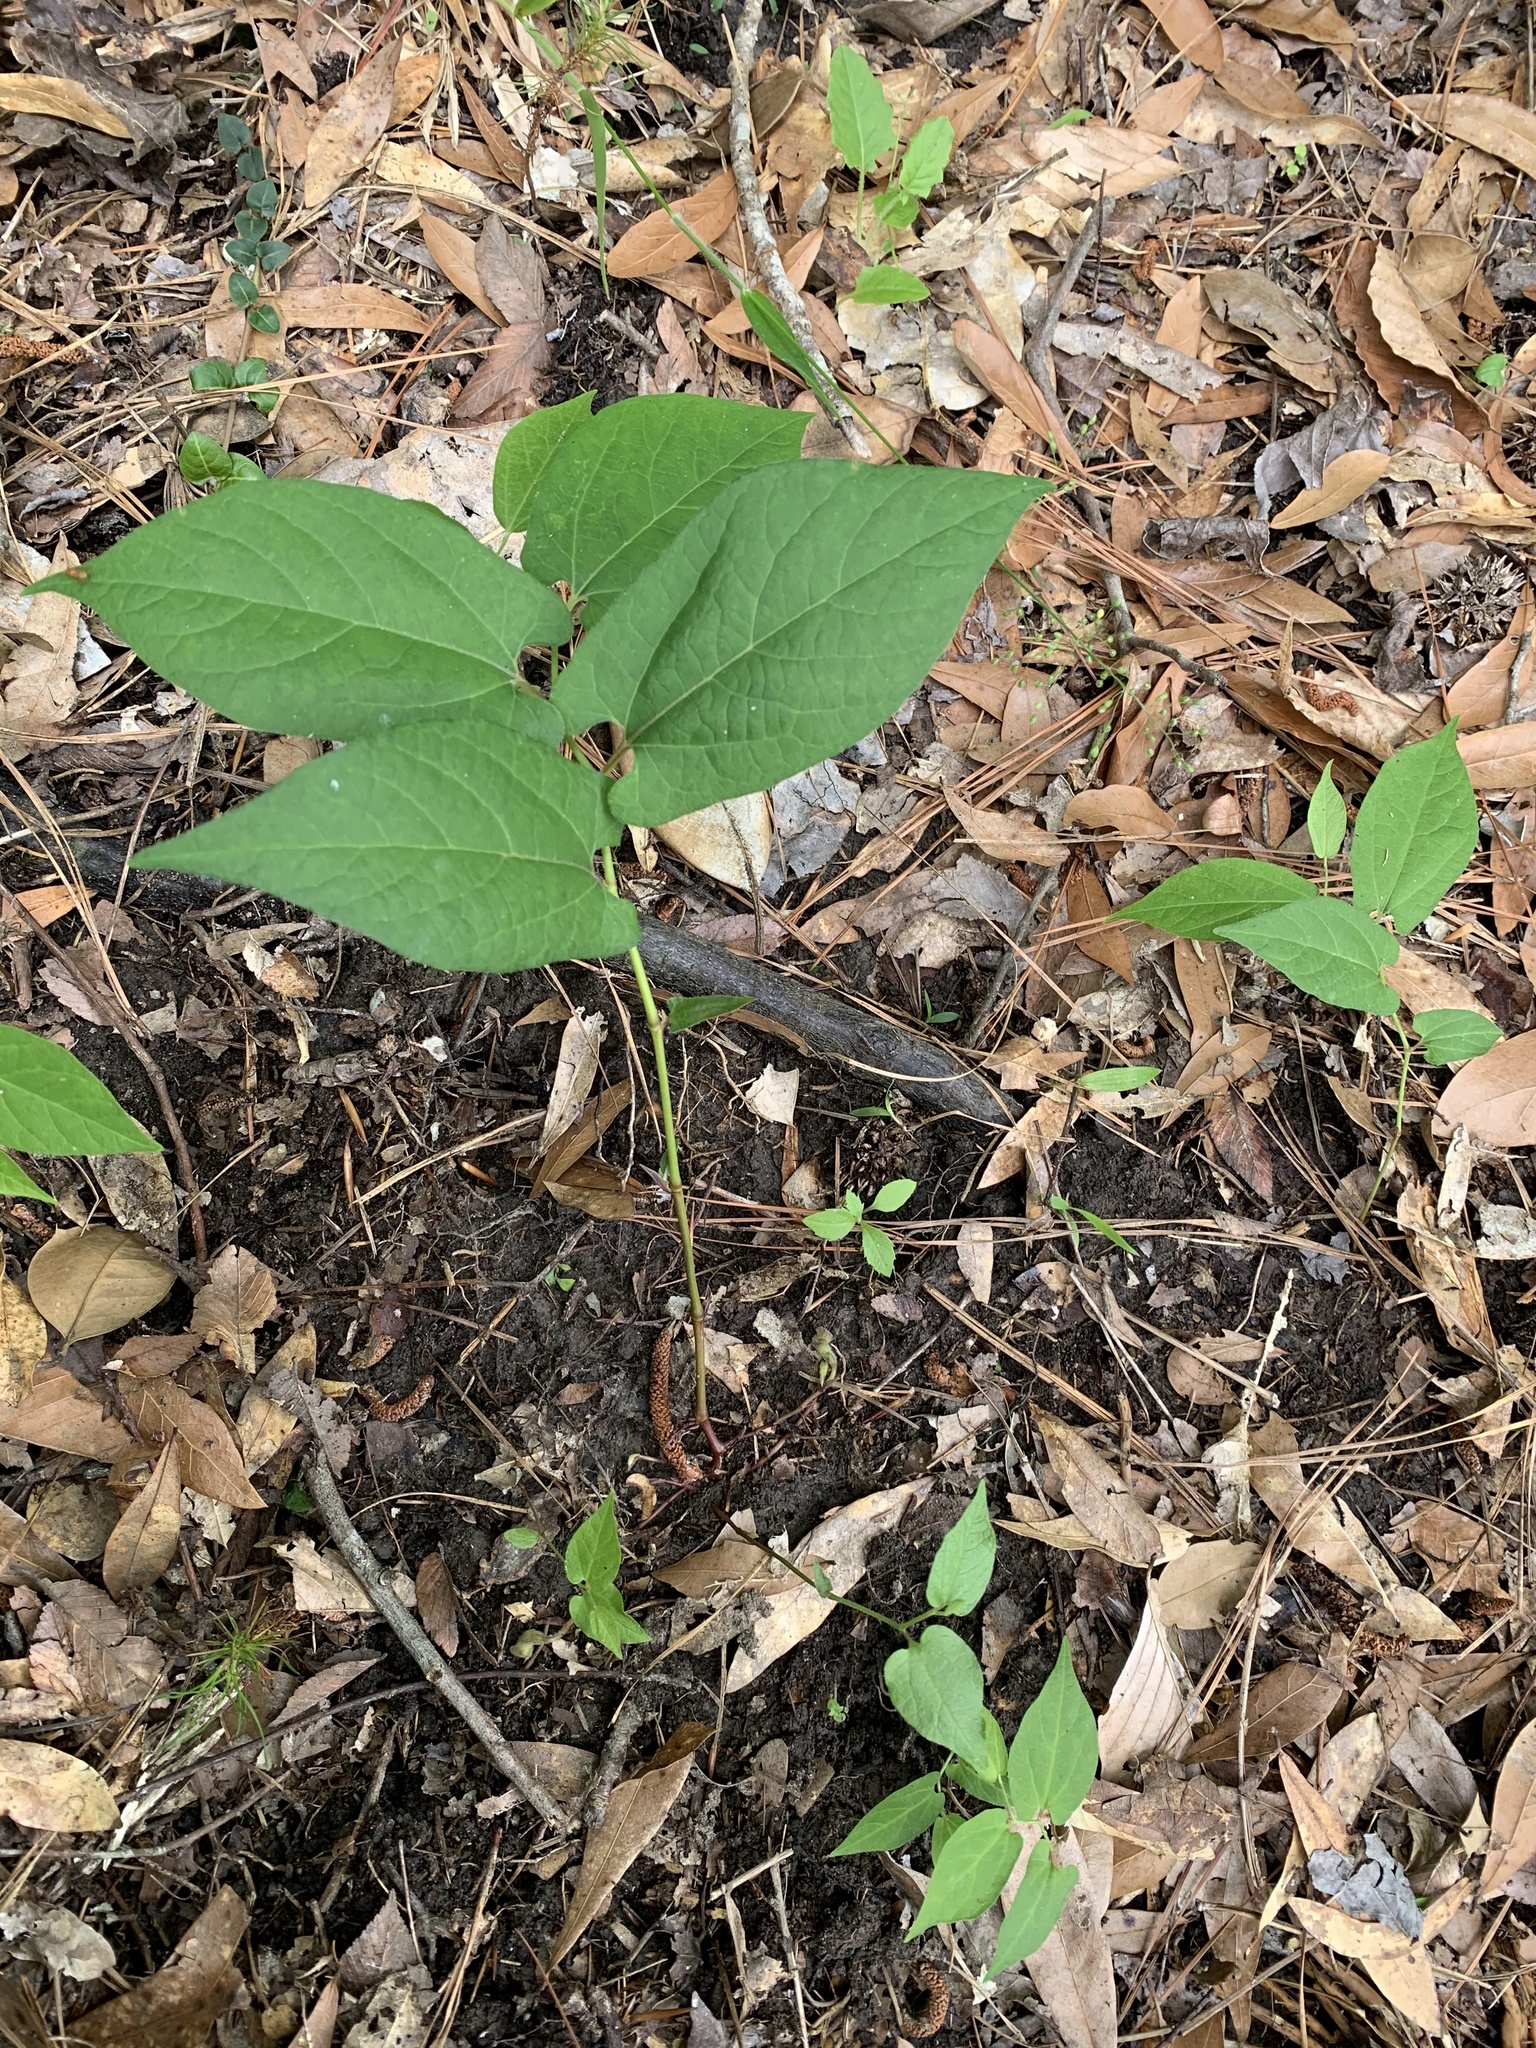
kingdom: Plantae
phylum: Tracheophyta
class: Magnoliopsida
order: Piperales
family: Aristolochiaceae
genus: Endodeca
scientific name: Endodeca serpentaria
